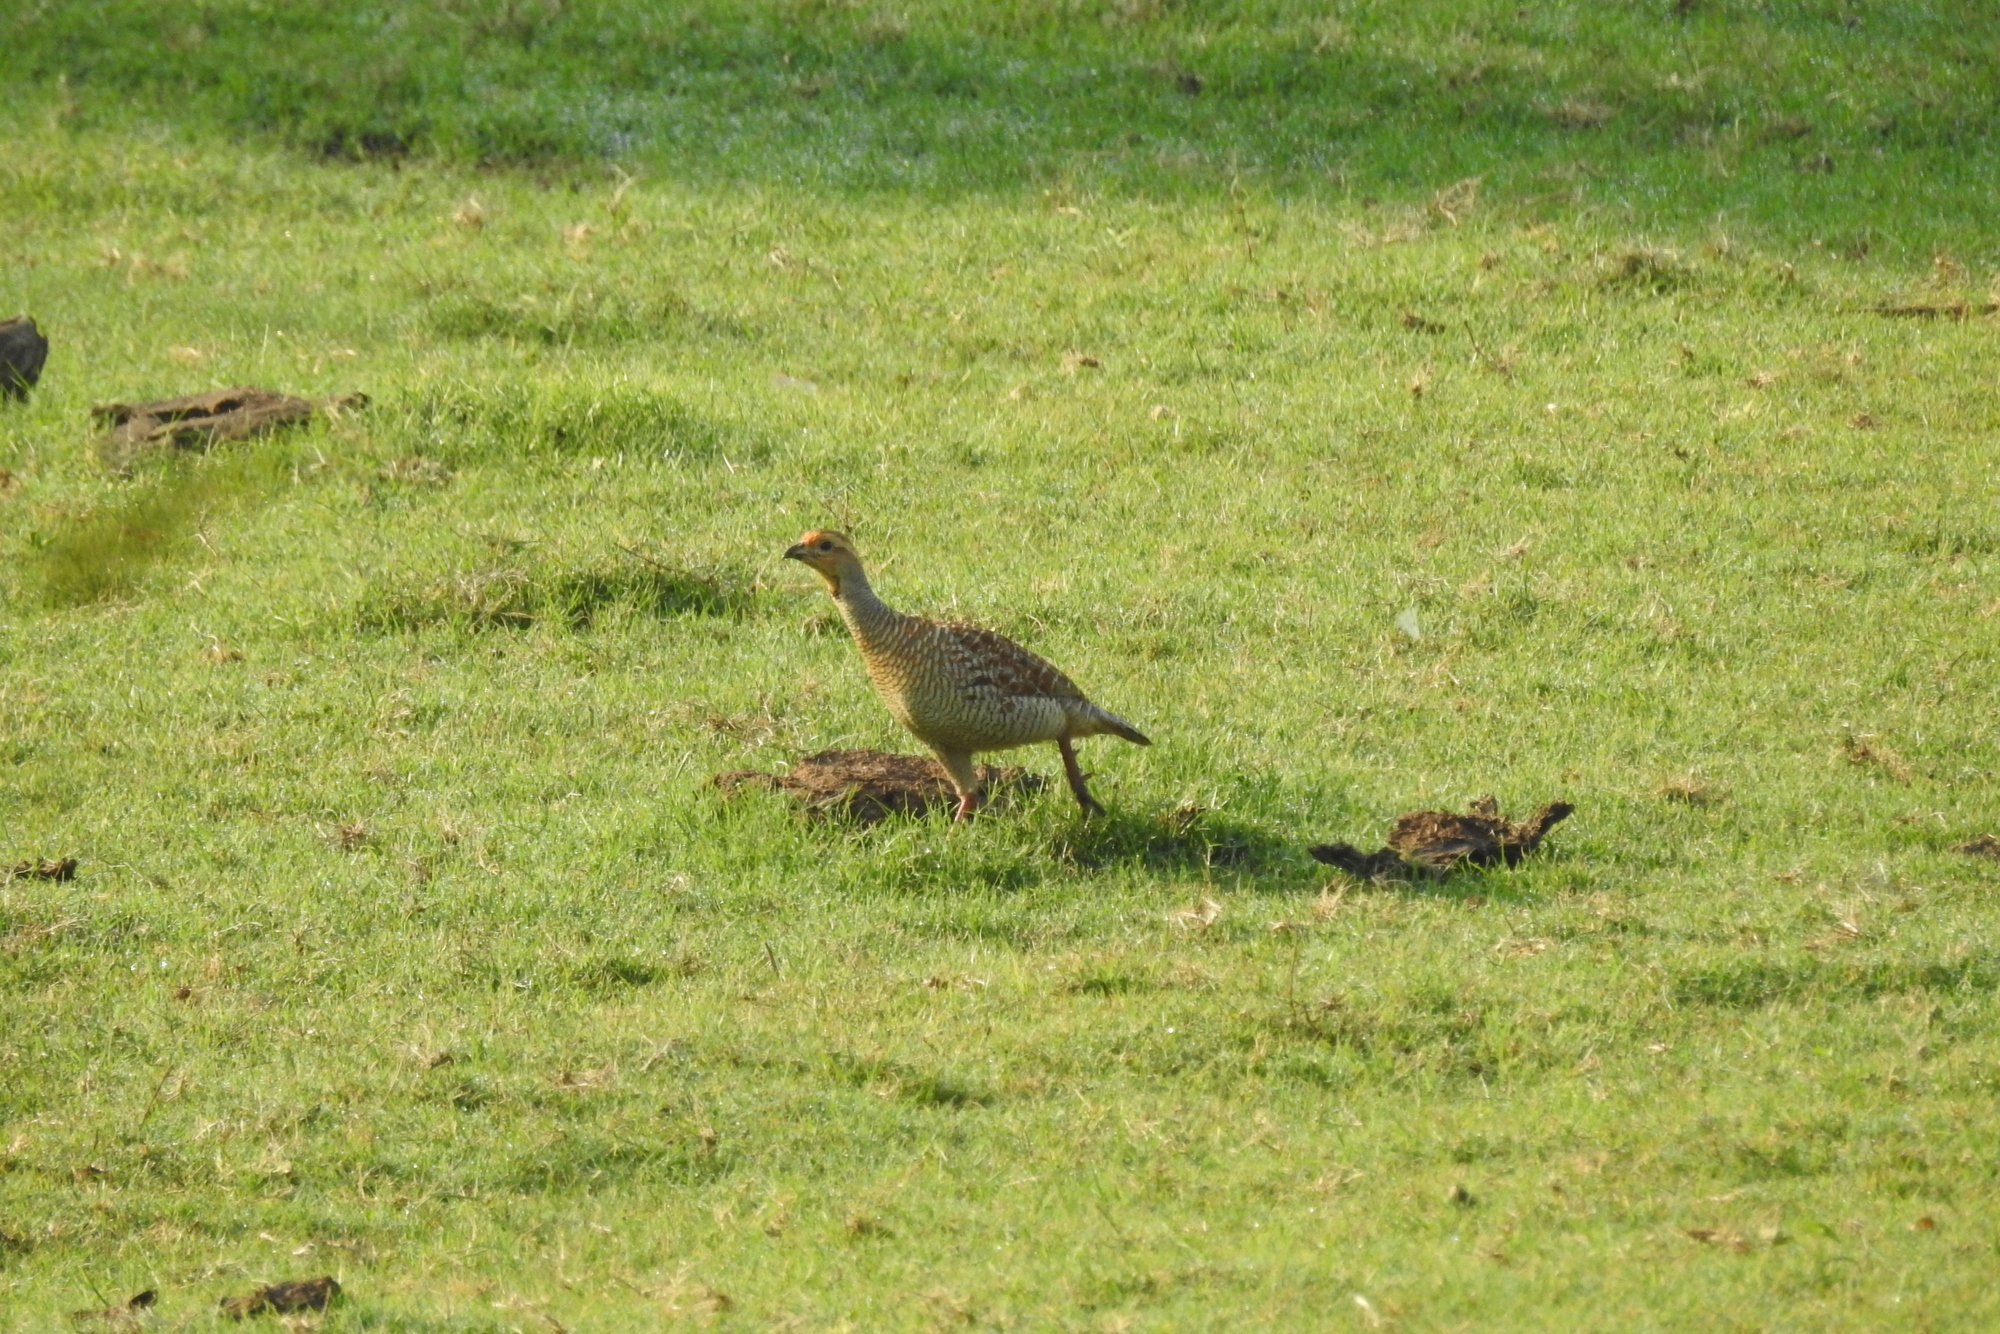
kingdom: Animalia
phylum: Chordata
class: Aves
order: Galliformes
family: Phasianidae
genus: Ortygornis
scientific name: Ortygornis pondicerianus
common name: Grey francolin
